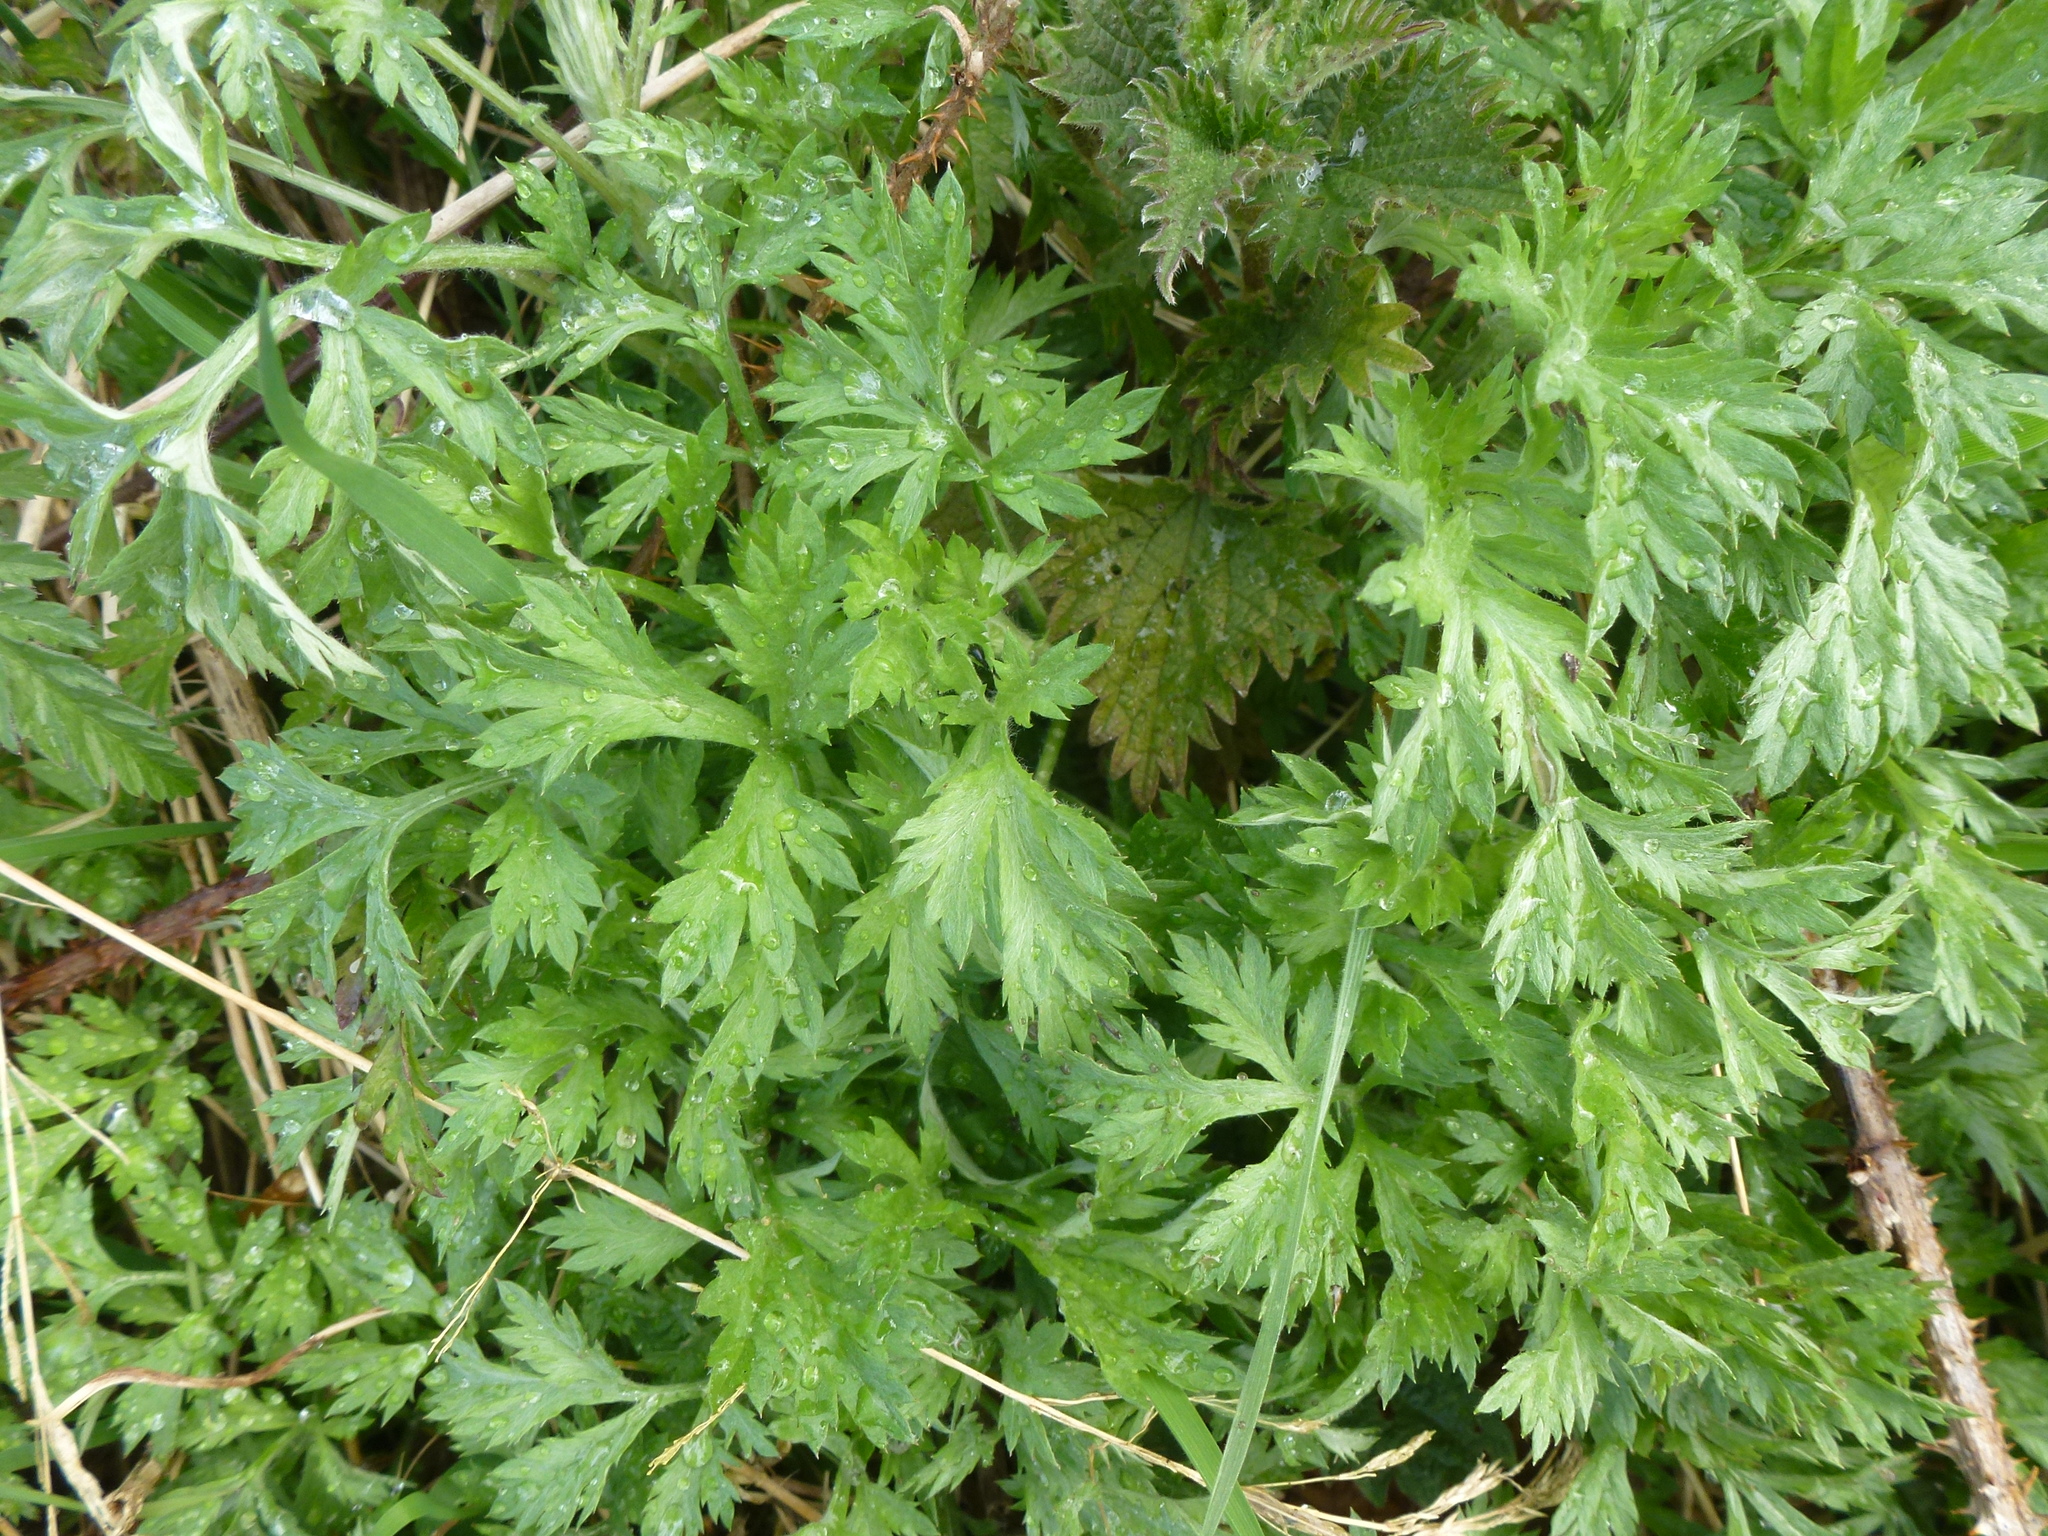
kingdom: Plantae
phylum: Tracheophyta
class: Magnoliopsida
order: Asterales
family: Asteraceae
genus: Artemisia
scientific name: Artemisia vulgaris
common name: Mugwort
